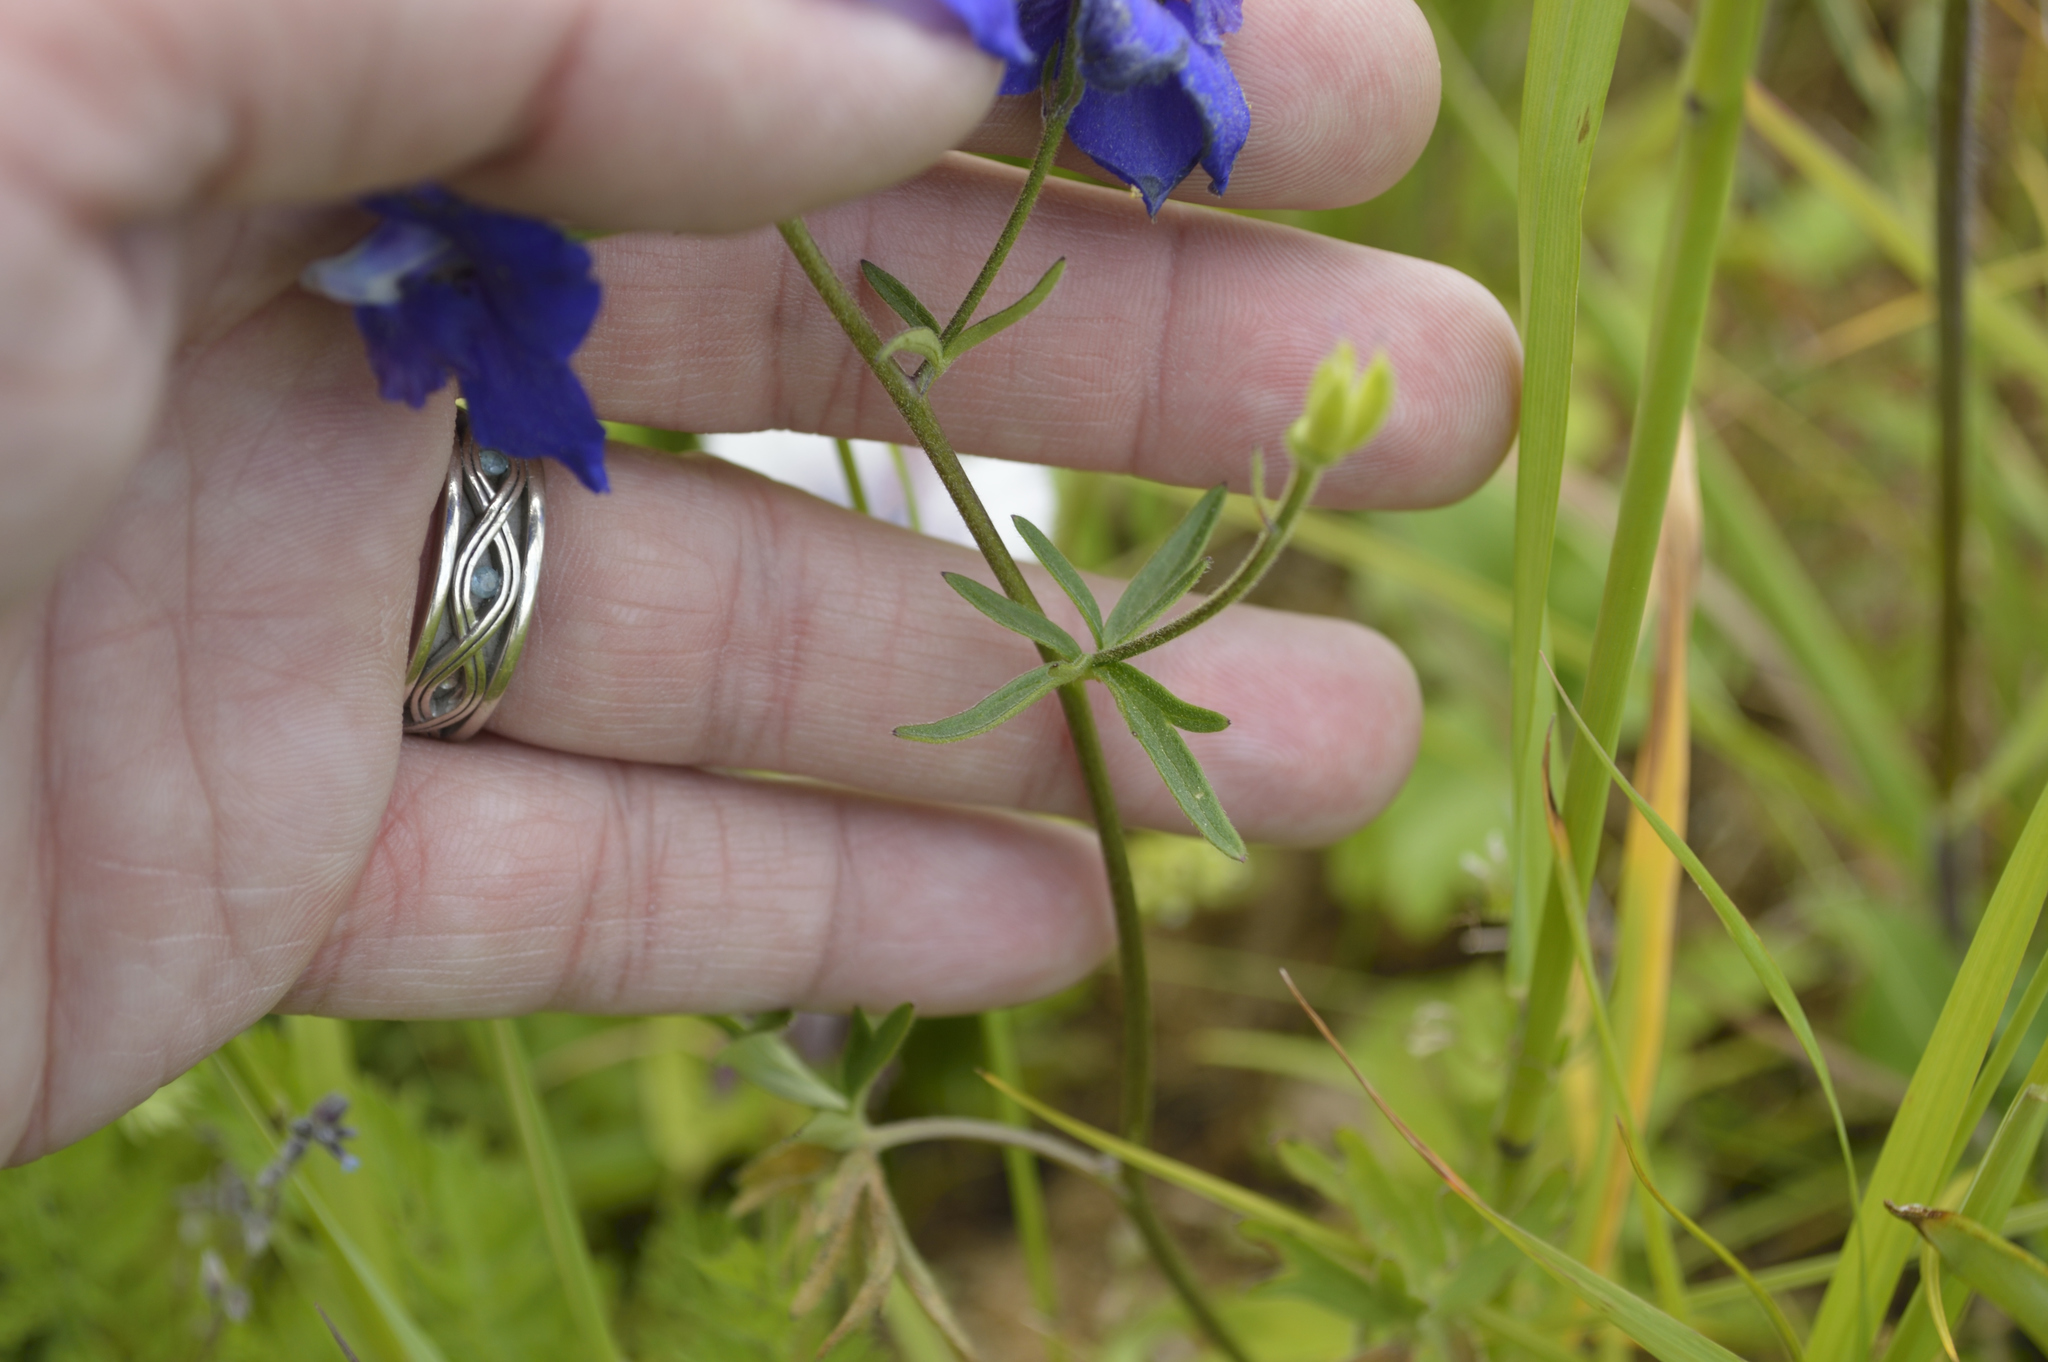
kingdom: Plantae
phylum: Tracheophyta
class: Magnoliopsida
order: Ranunculales
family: Ranunculaceae
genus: Delphinium
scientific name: Delphinium menziesii
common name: Menzies's larkspur
